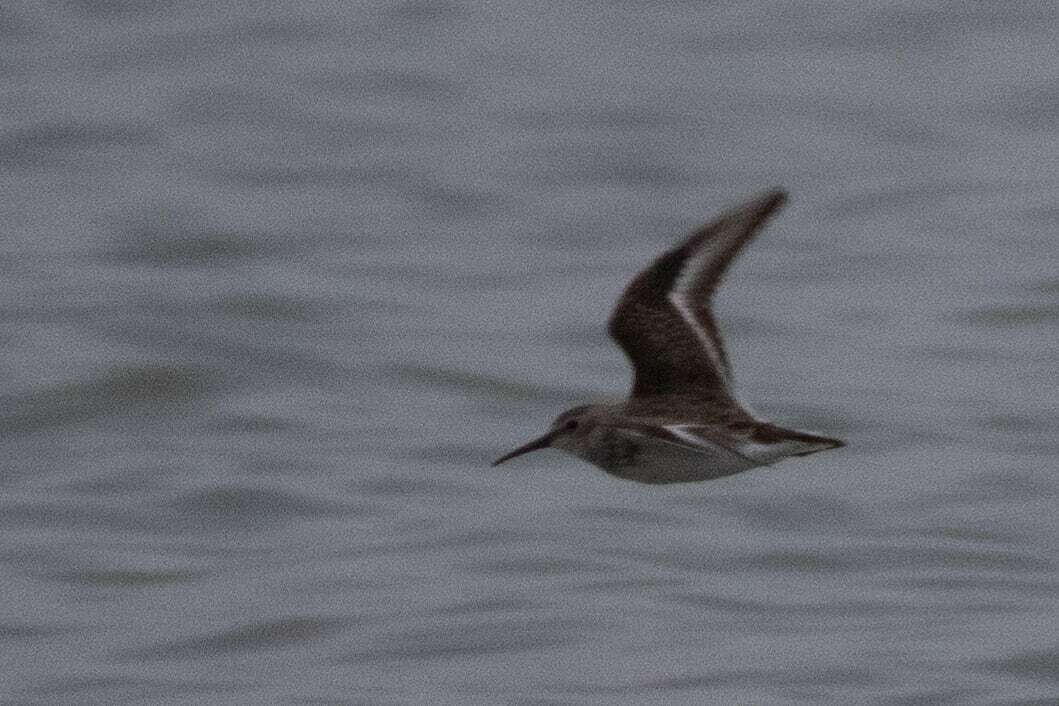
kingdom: Animalia
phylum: Chordata
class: Aves
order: Charadriiformes
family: Scolopacidae
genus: Calidris
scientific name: Calidris alpina
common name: Dunlin
